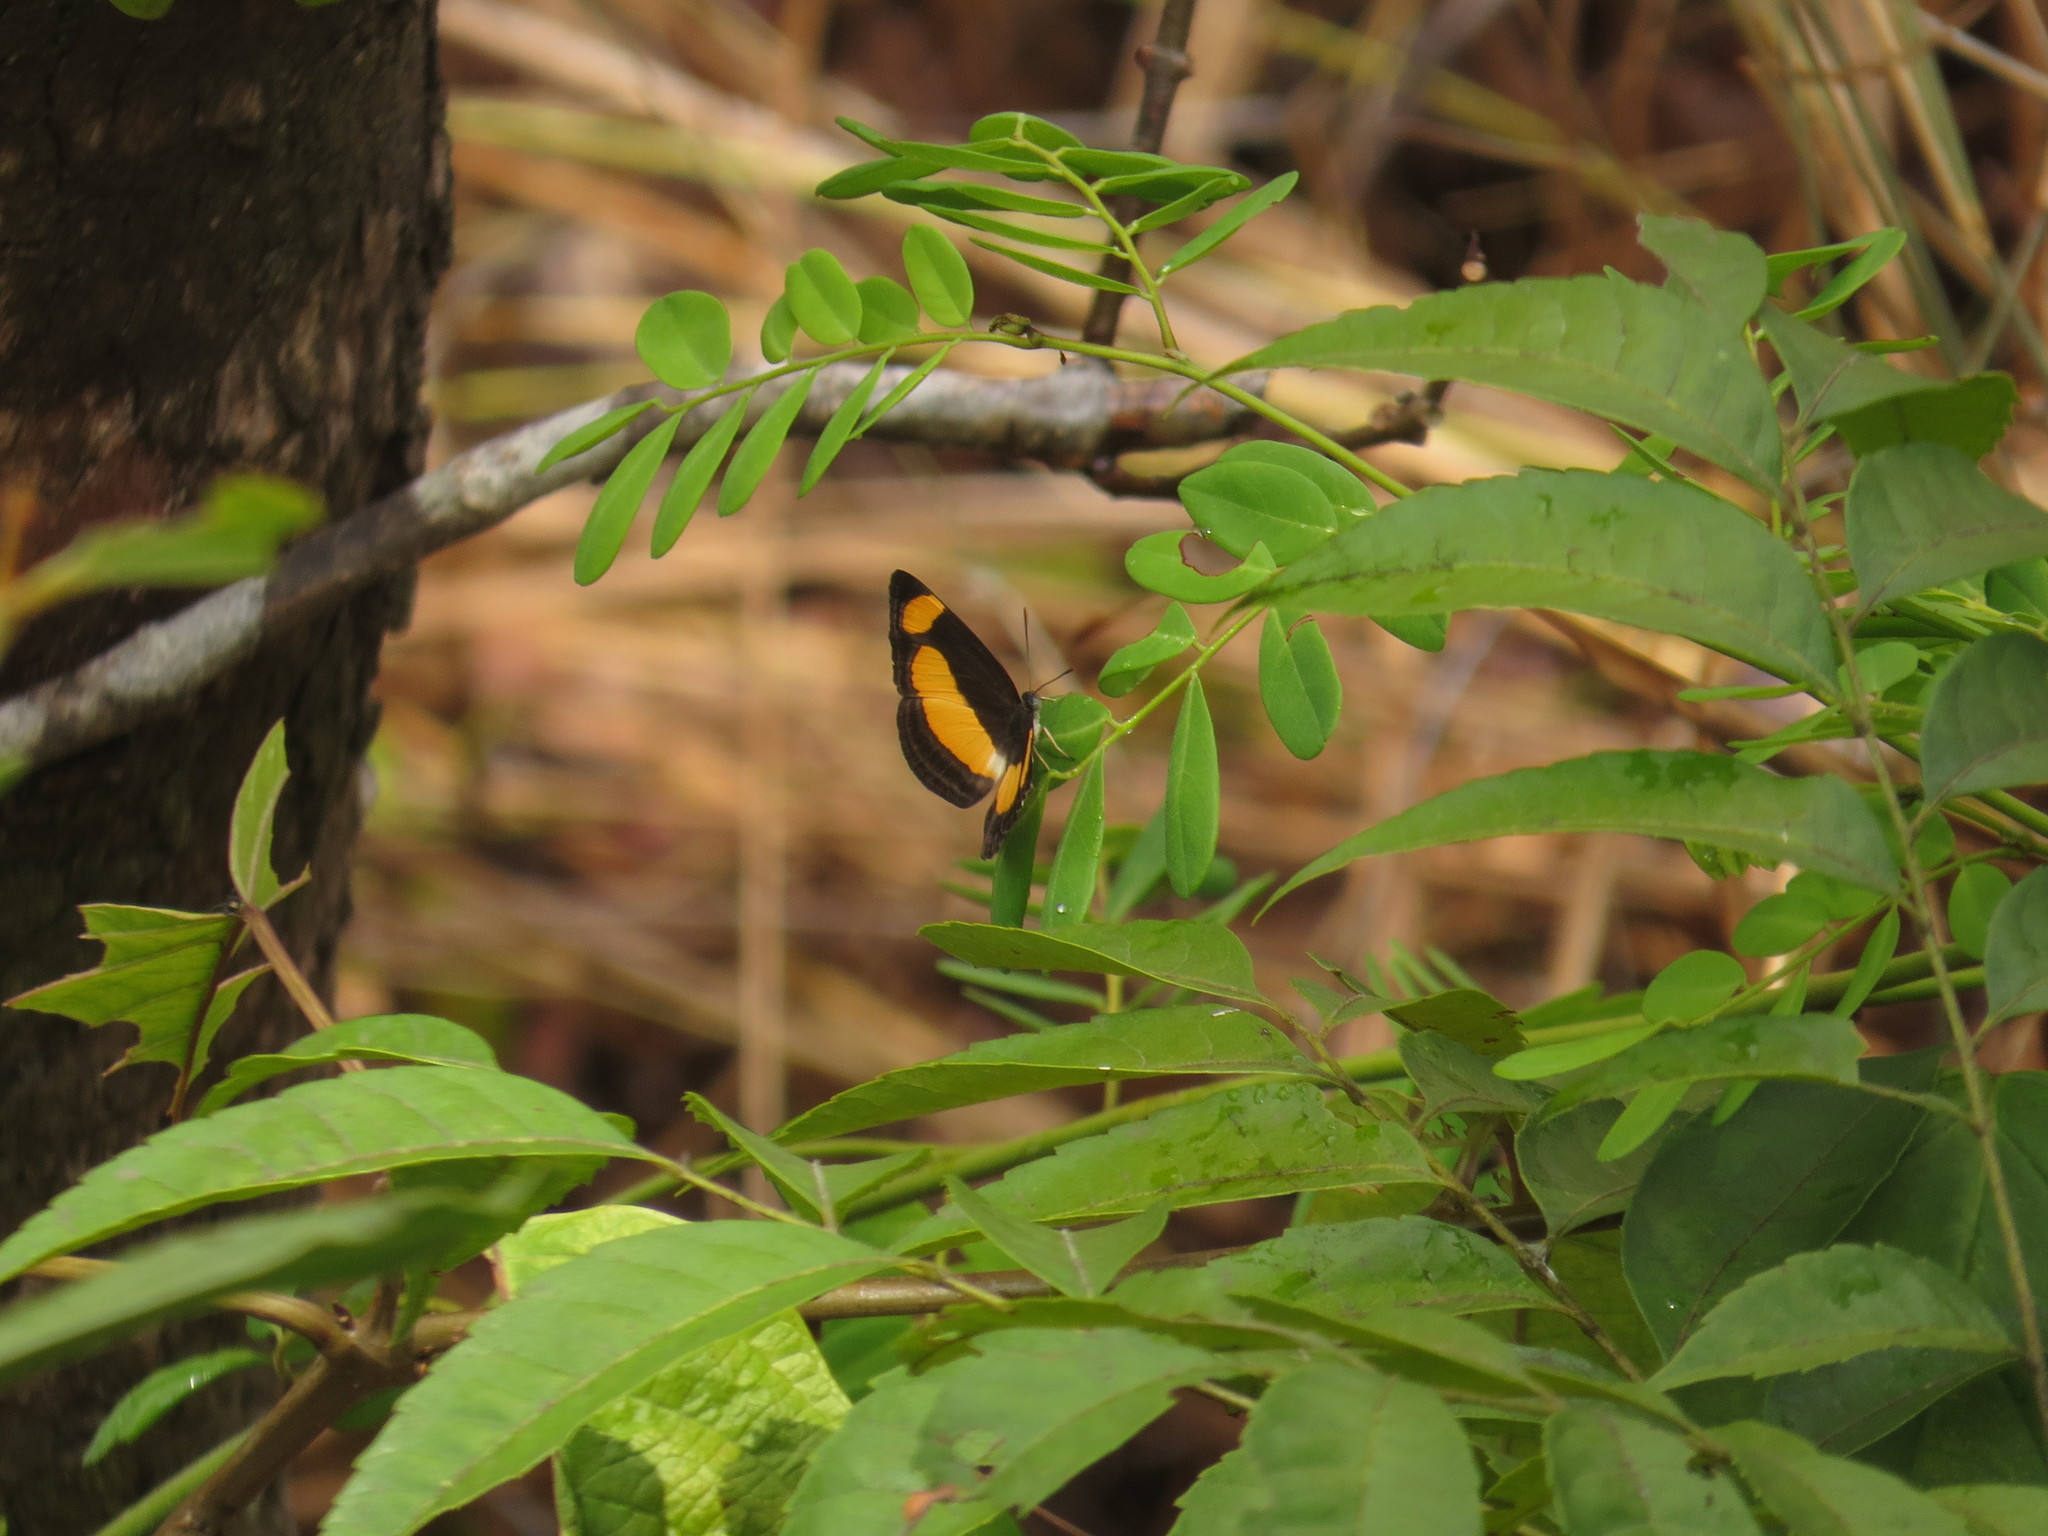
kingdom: Animalia
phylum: Arthropoda
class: Insecta
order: Lepidoptera
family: Nymphalidae
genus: Pantoporia
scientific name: Pantoporia consimilis
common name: Orange plane
